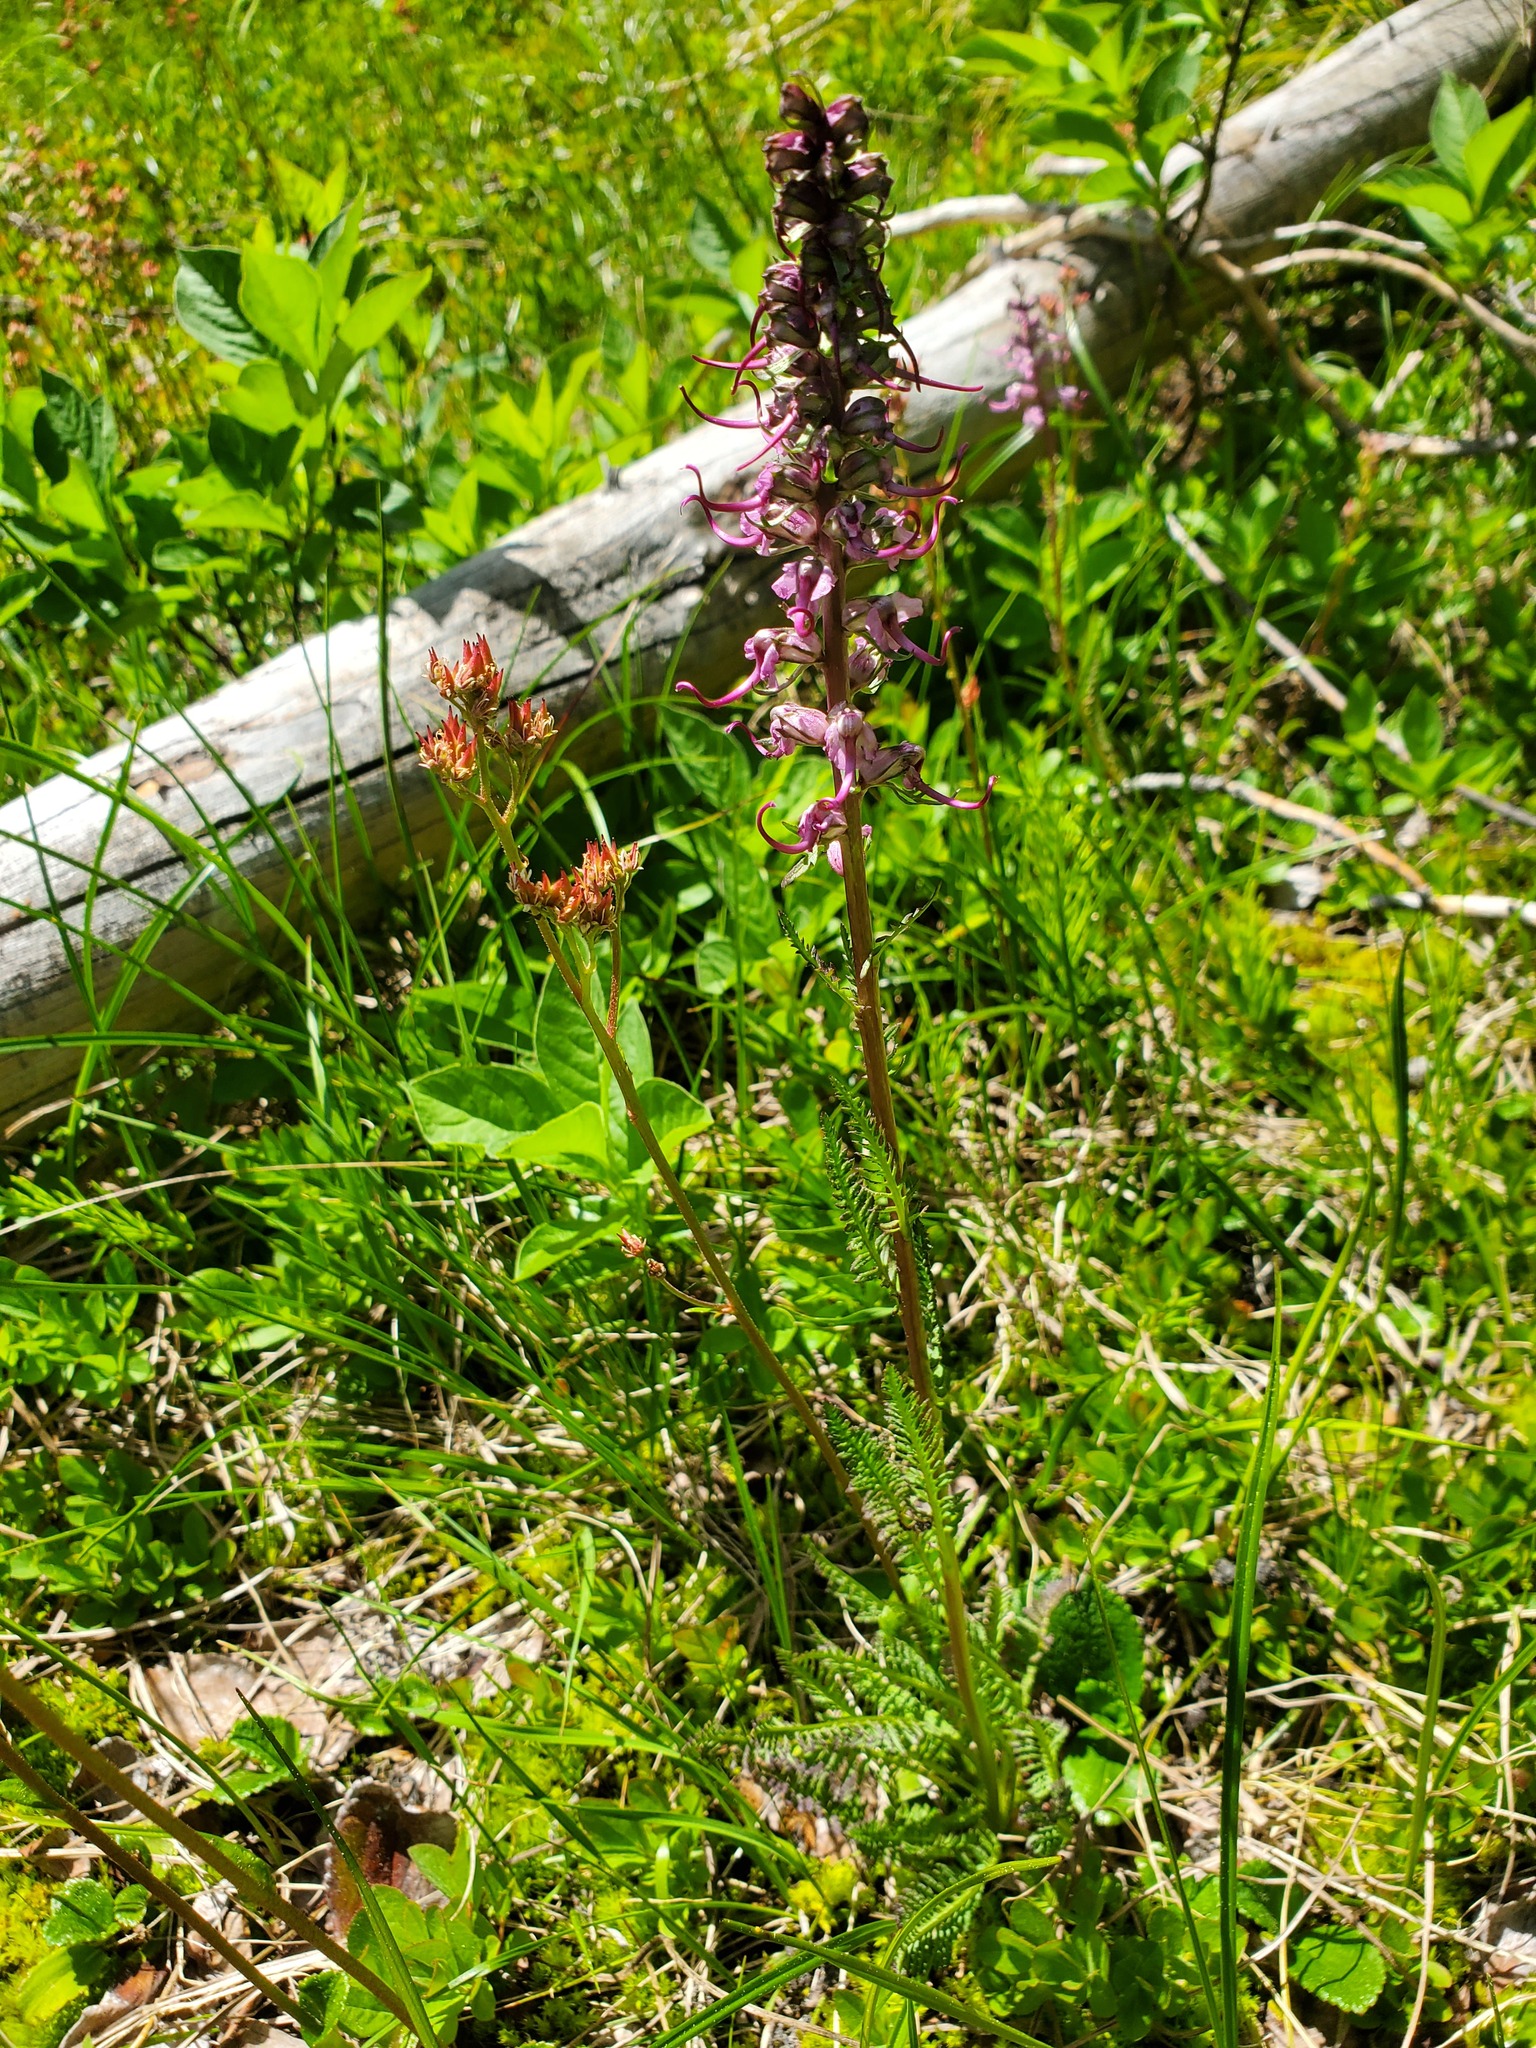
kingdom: Plantae
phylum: Tracheophyta
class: Magnoliopsida
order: Lamiales
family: Orobanchaceae
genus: Pedicularis
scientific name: Pedicularis groenlandica
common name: Elephant's-head
